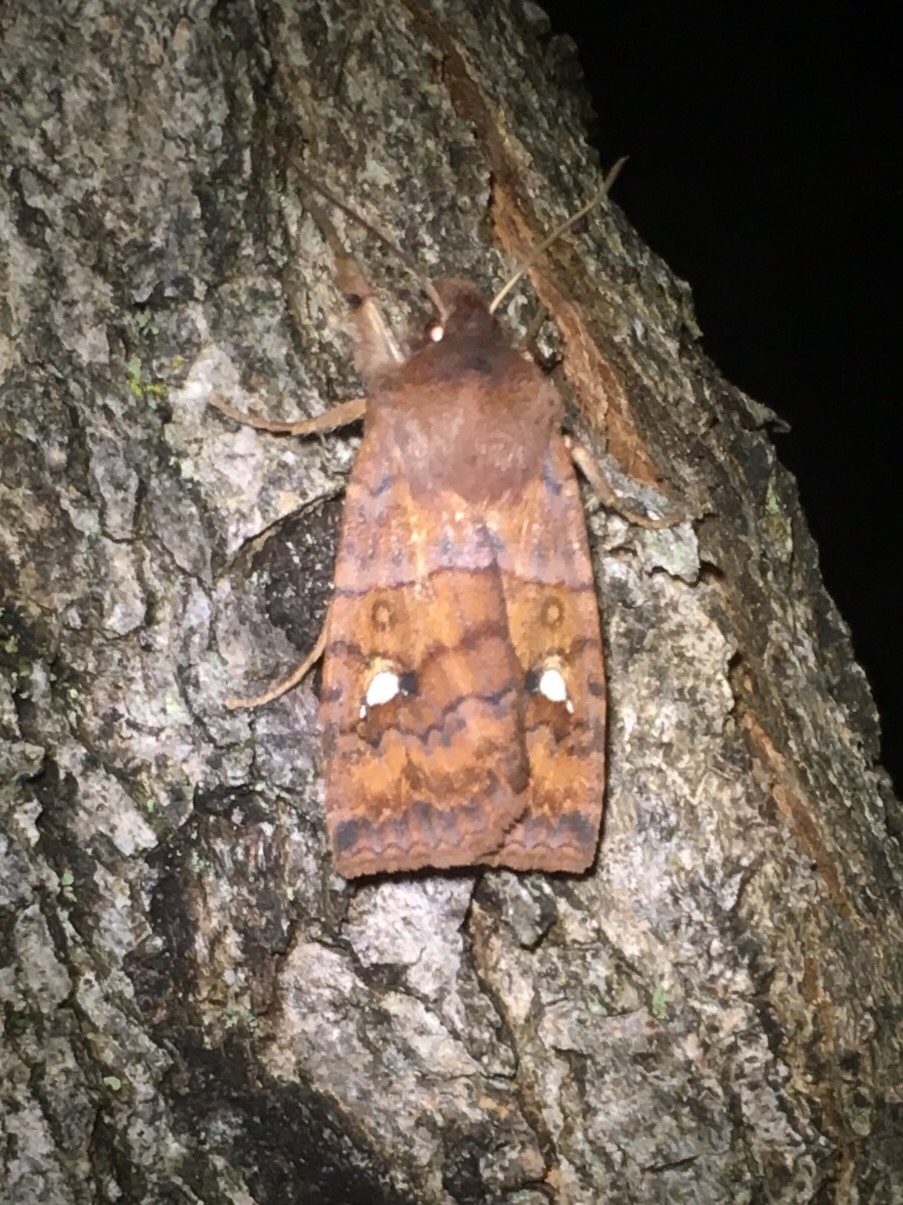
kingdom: Animalia
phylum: Arthropoda
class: Insecta
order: Lepidoptera
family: Noctuidae
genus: Eupsilia
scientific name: Eupsilia tristigmata
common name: Three-spotted sallow
